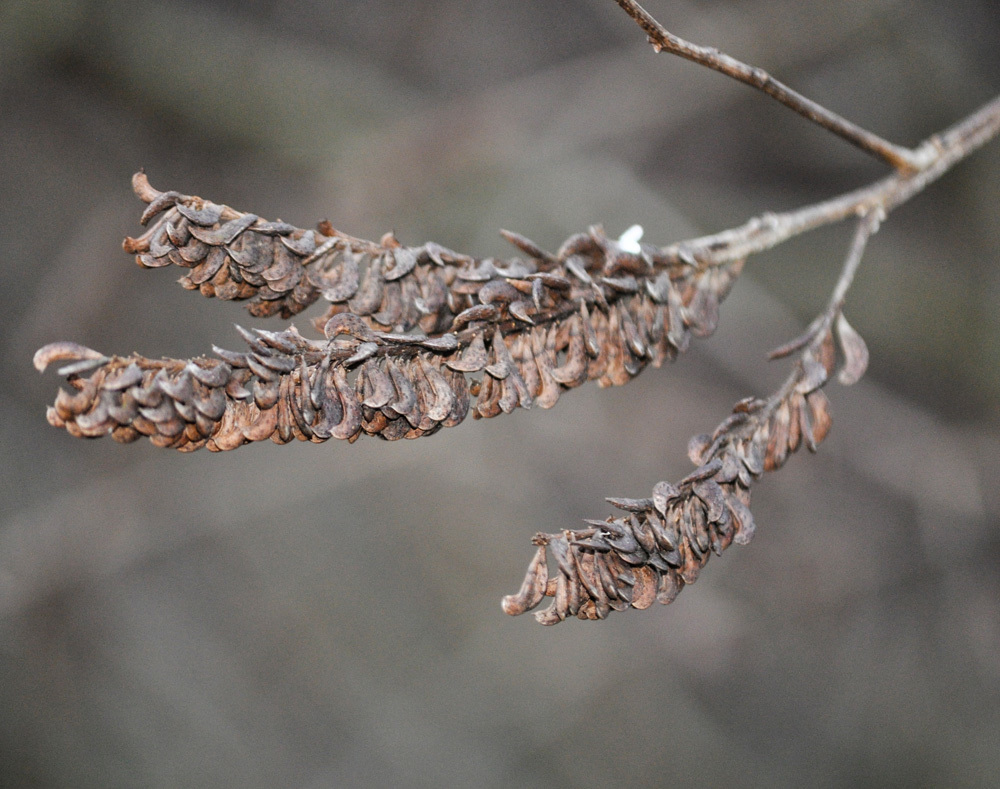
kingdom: Plantae
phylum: Tracheophyta
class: Magnoliopsida
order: Fabales
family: Fabaceae
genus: Amorpha
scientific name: Amorpha fruticosa
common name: False indigo
